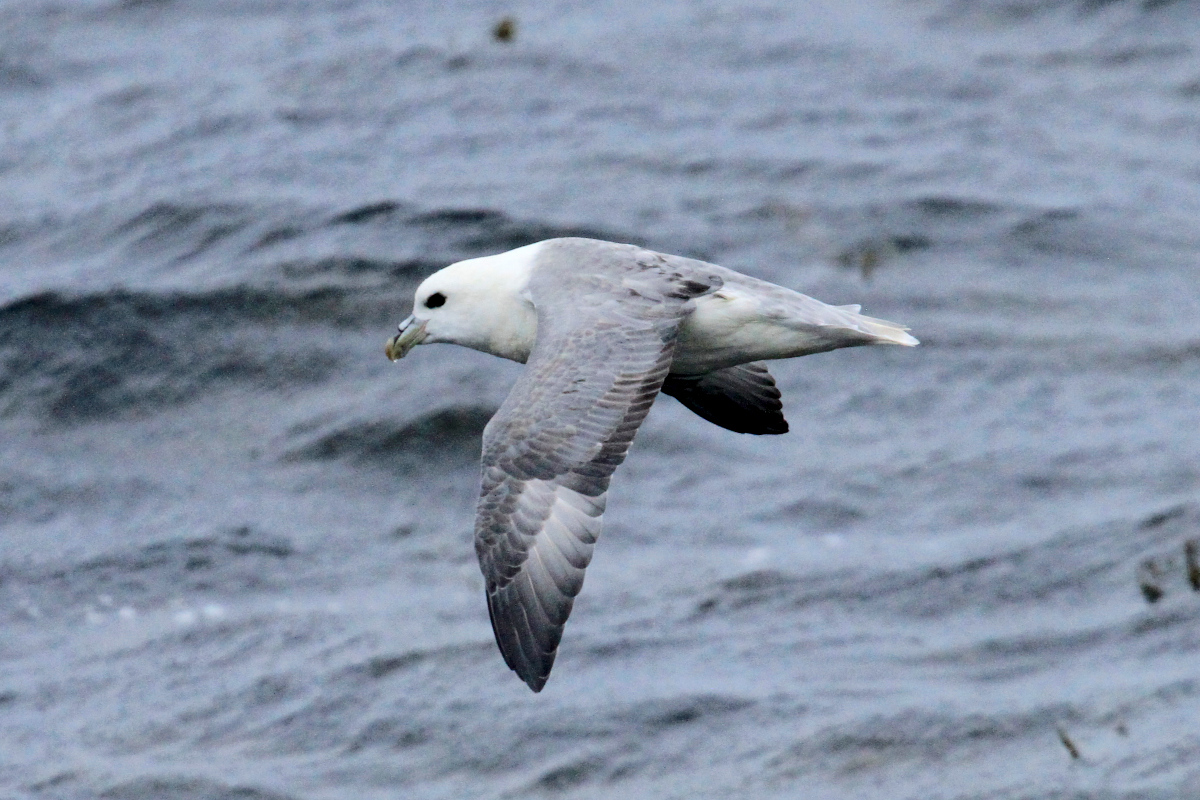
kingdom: Animalia
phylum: Chordata
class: Aves
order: Procellariiformes
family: Procellariidae
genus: Fulmarus
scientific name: Fulmarus glacialis
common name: Northern fulmar
